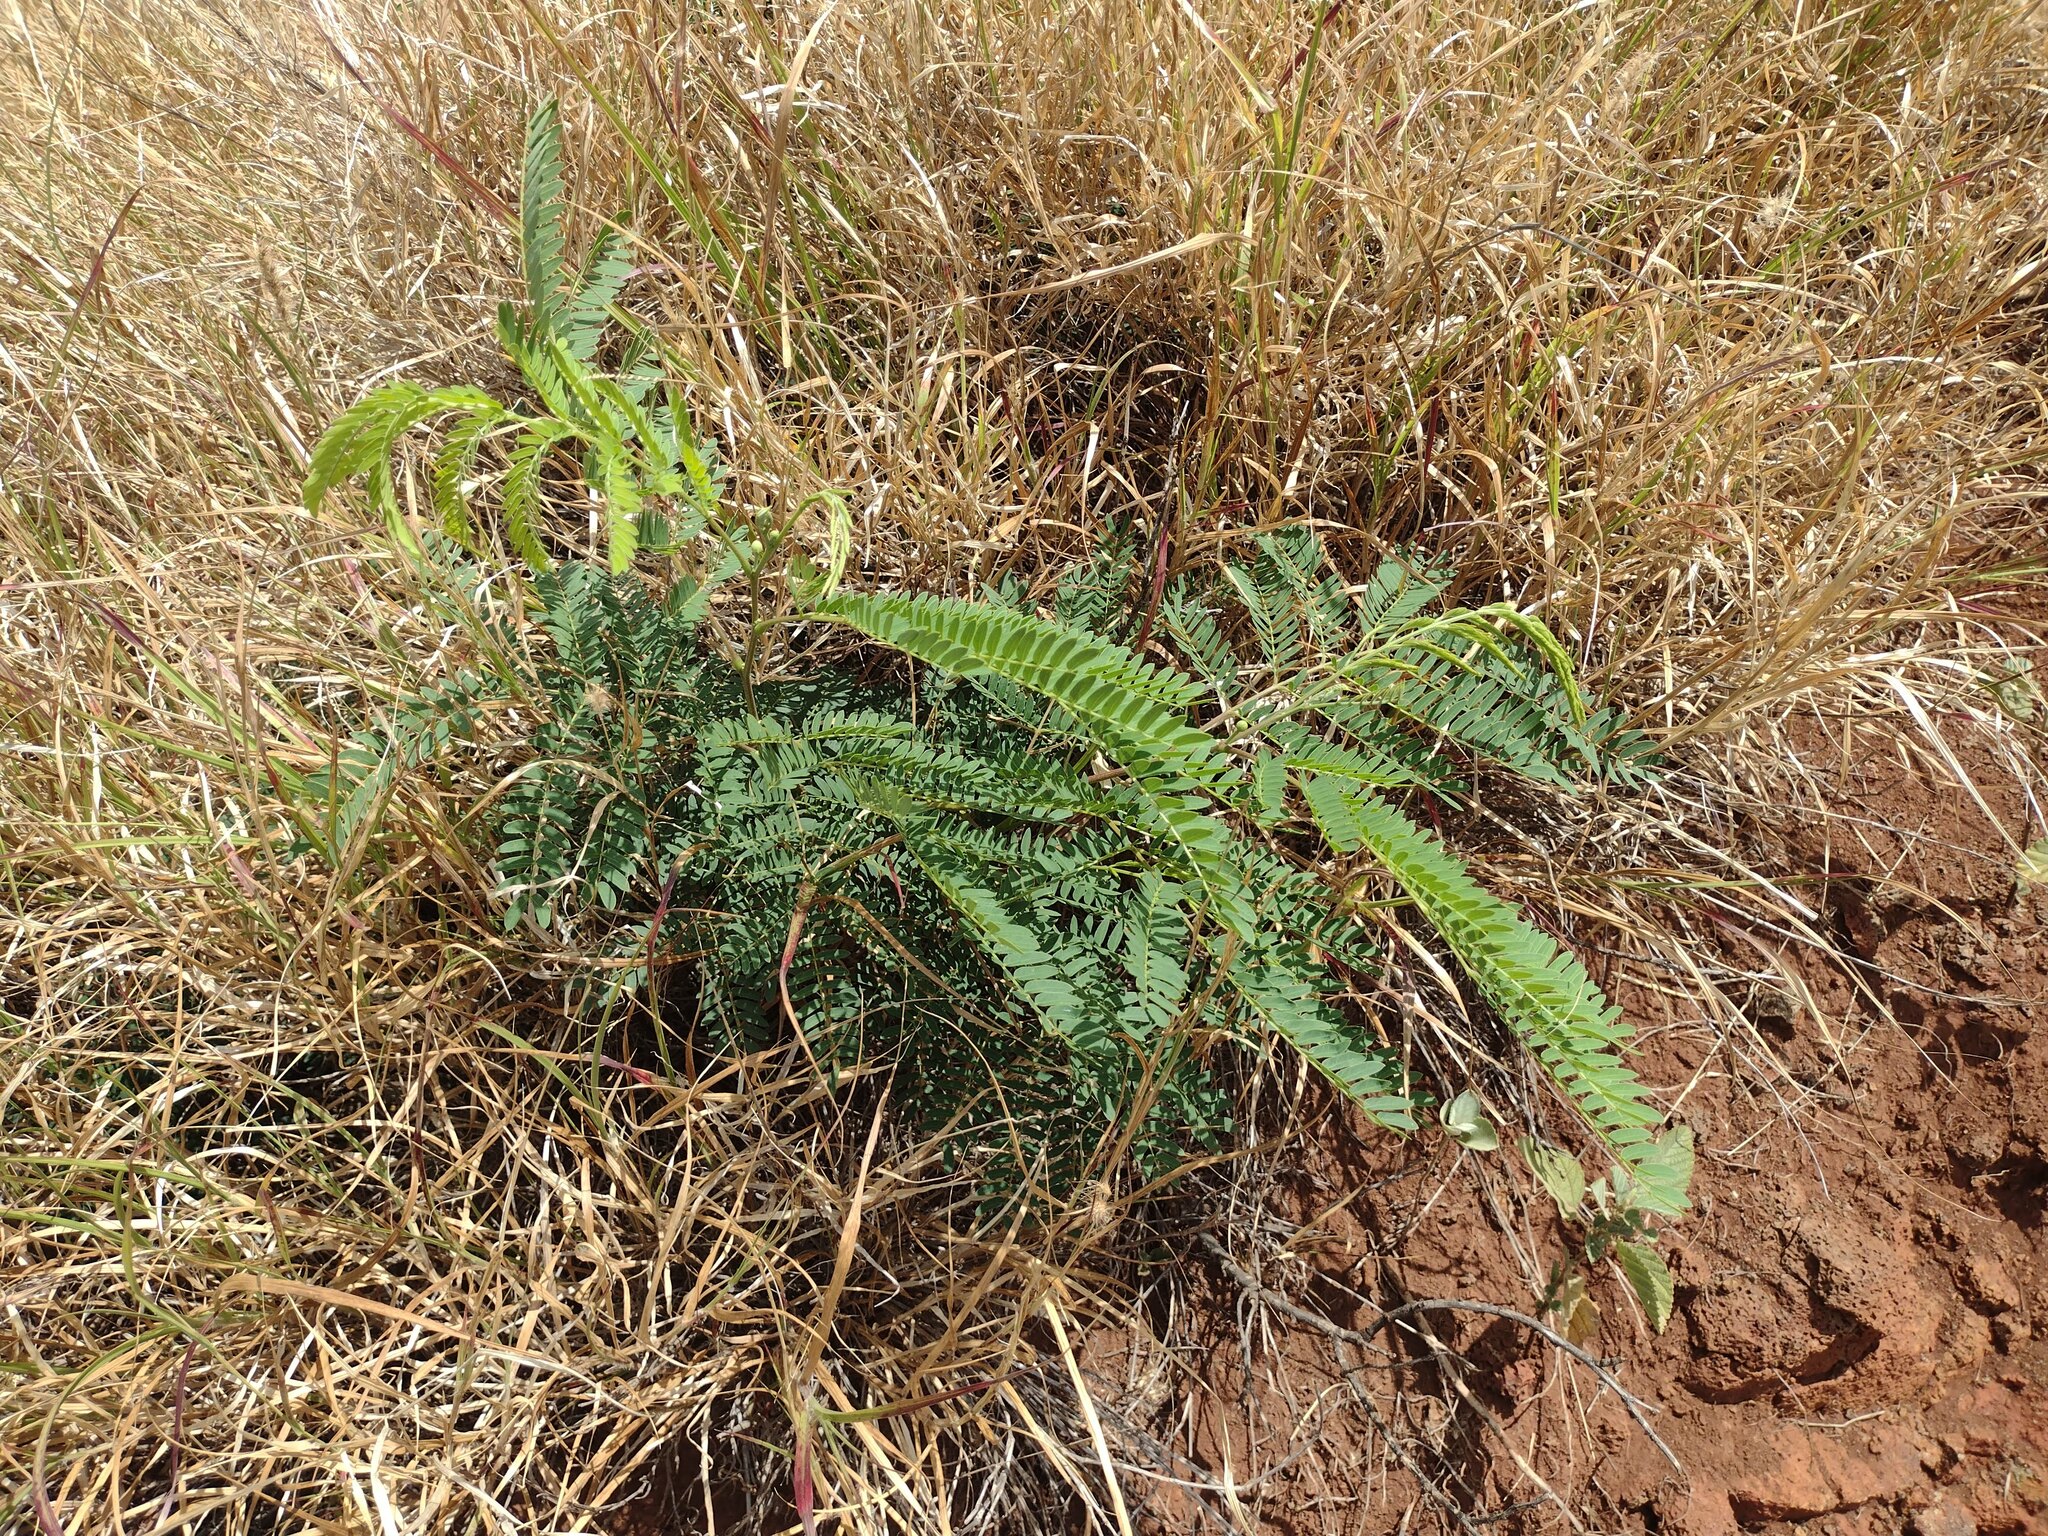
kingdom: Plantae
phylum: Tracheophyta
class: Magnoliopsida
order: Fabales
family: Fabaceae
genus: Leucaena
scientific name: Leucaena leucocephala
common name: White leadtree
